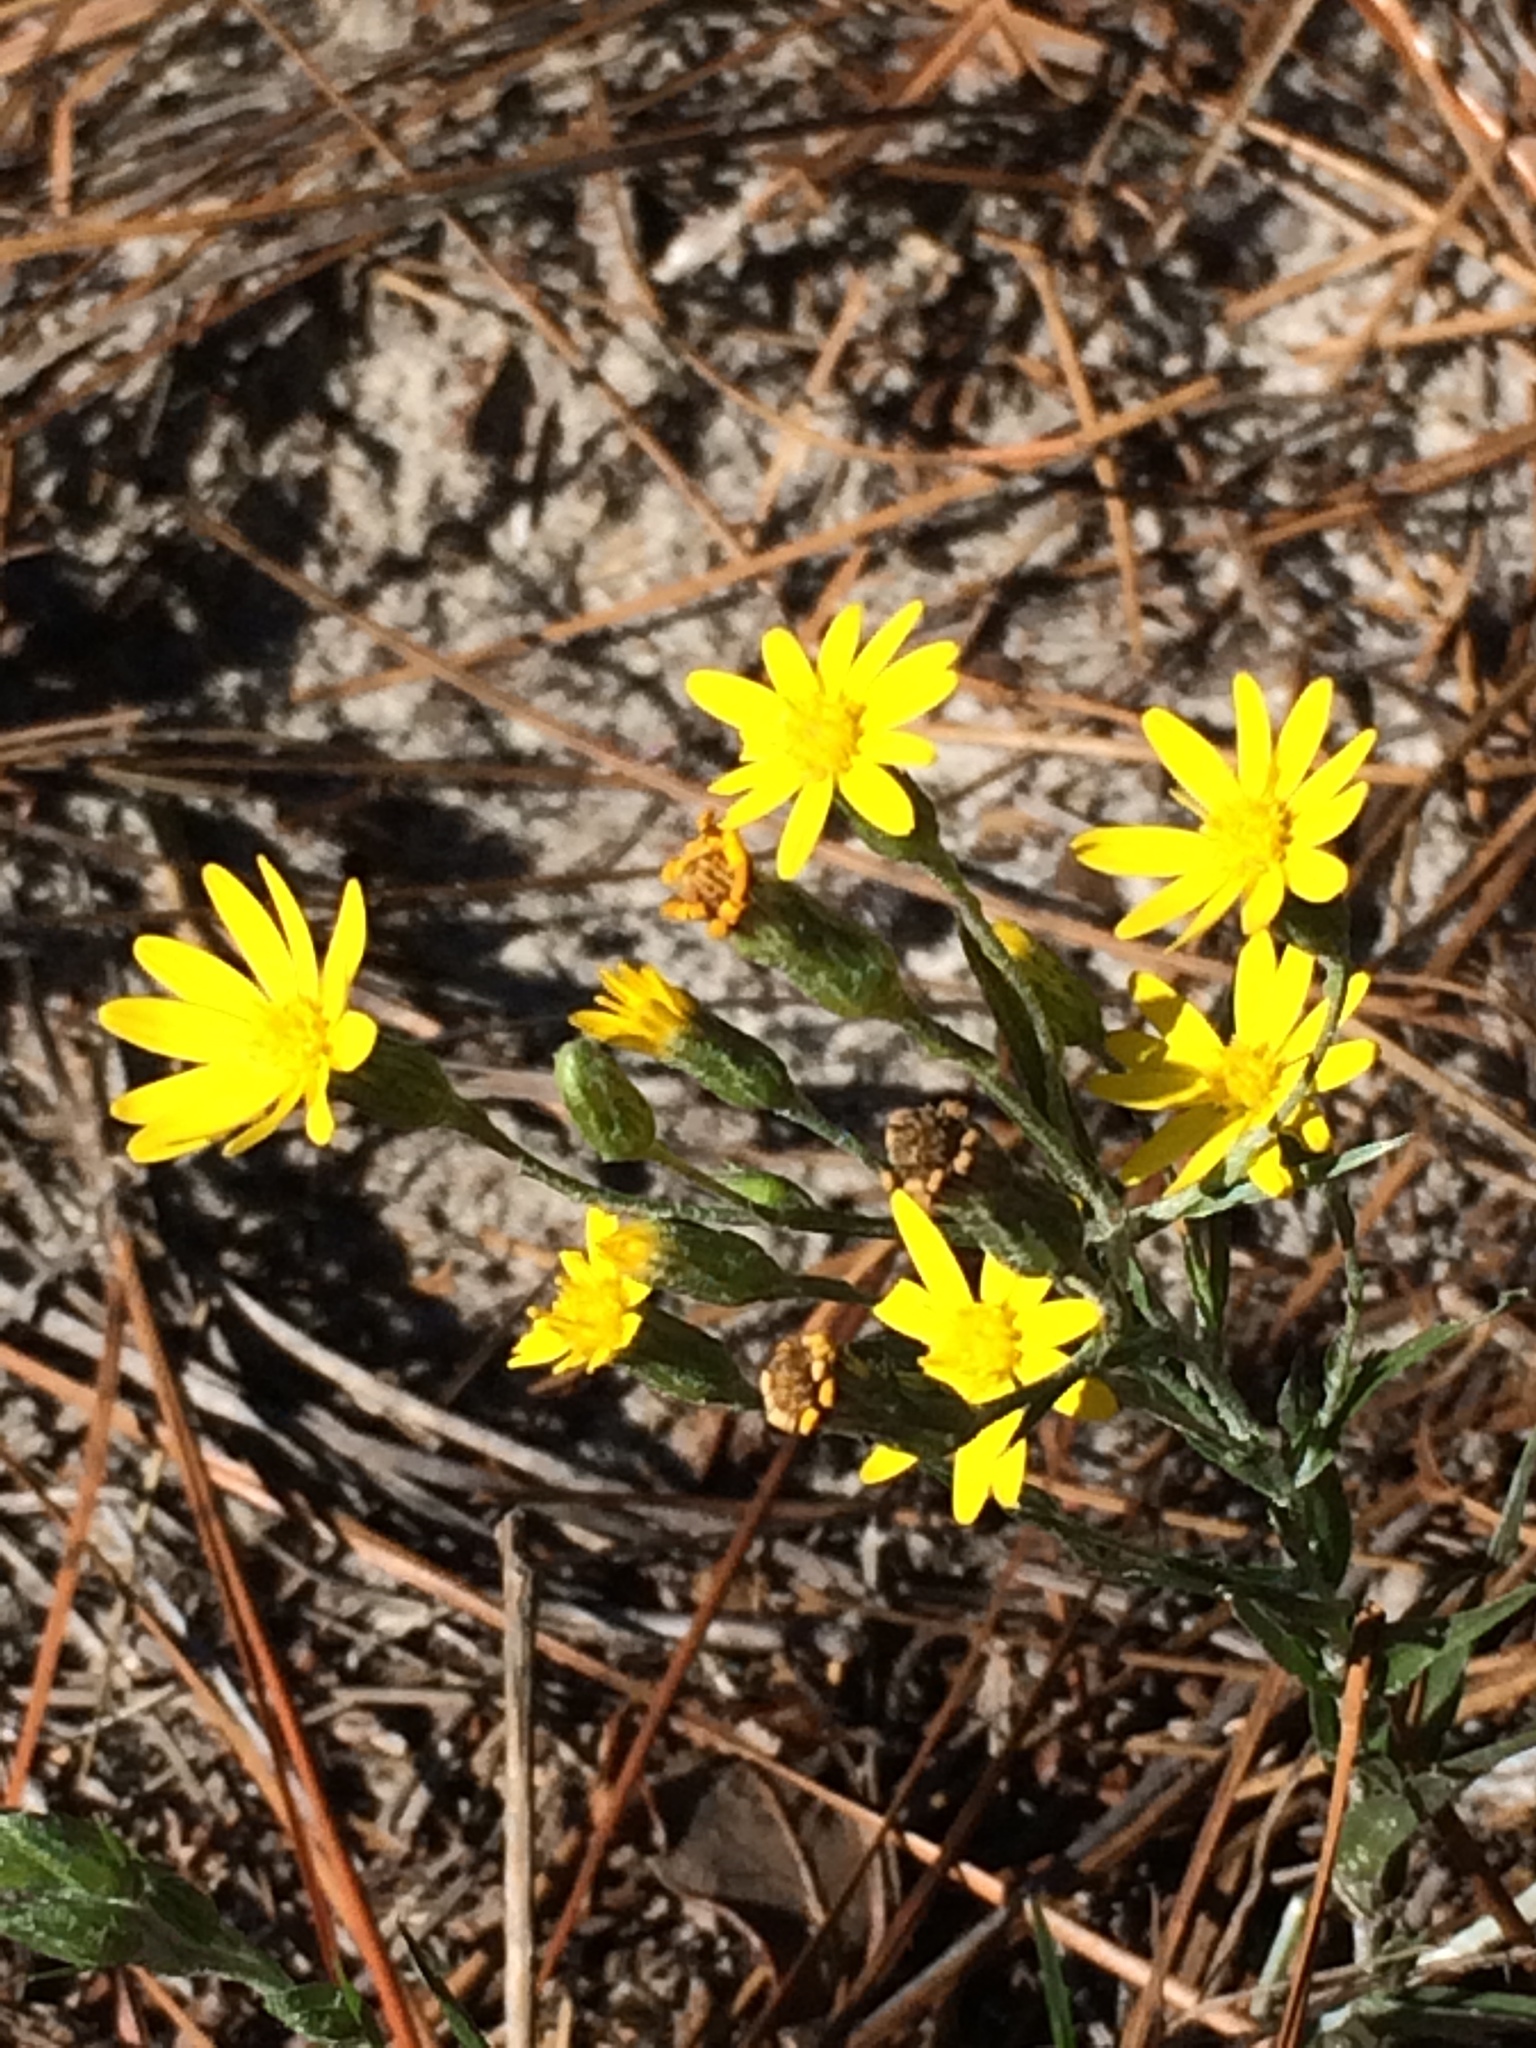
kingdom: Plantae
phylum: Tracheophyta
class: Magnoliopsida
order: Asterales
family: Asteraceae
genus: Pityopsis
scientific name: Pityopsis graminifolia
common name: Grass-leaf golden-aster
